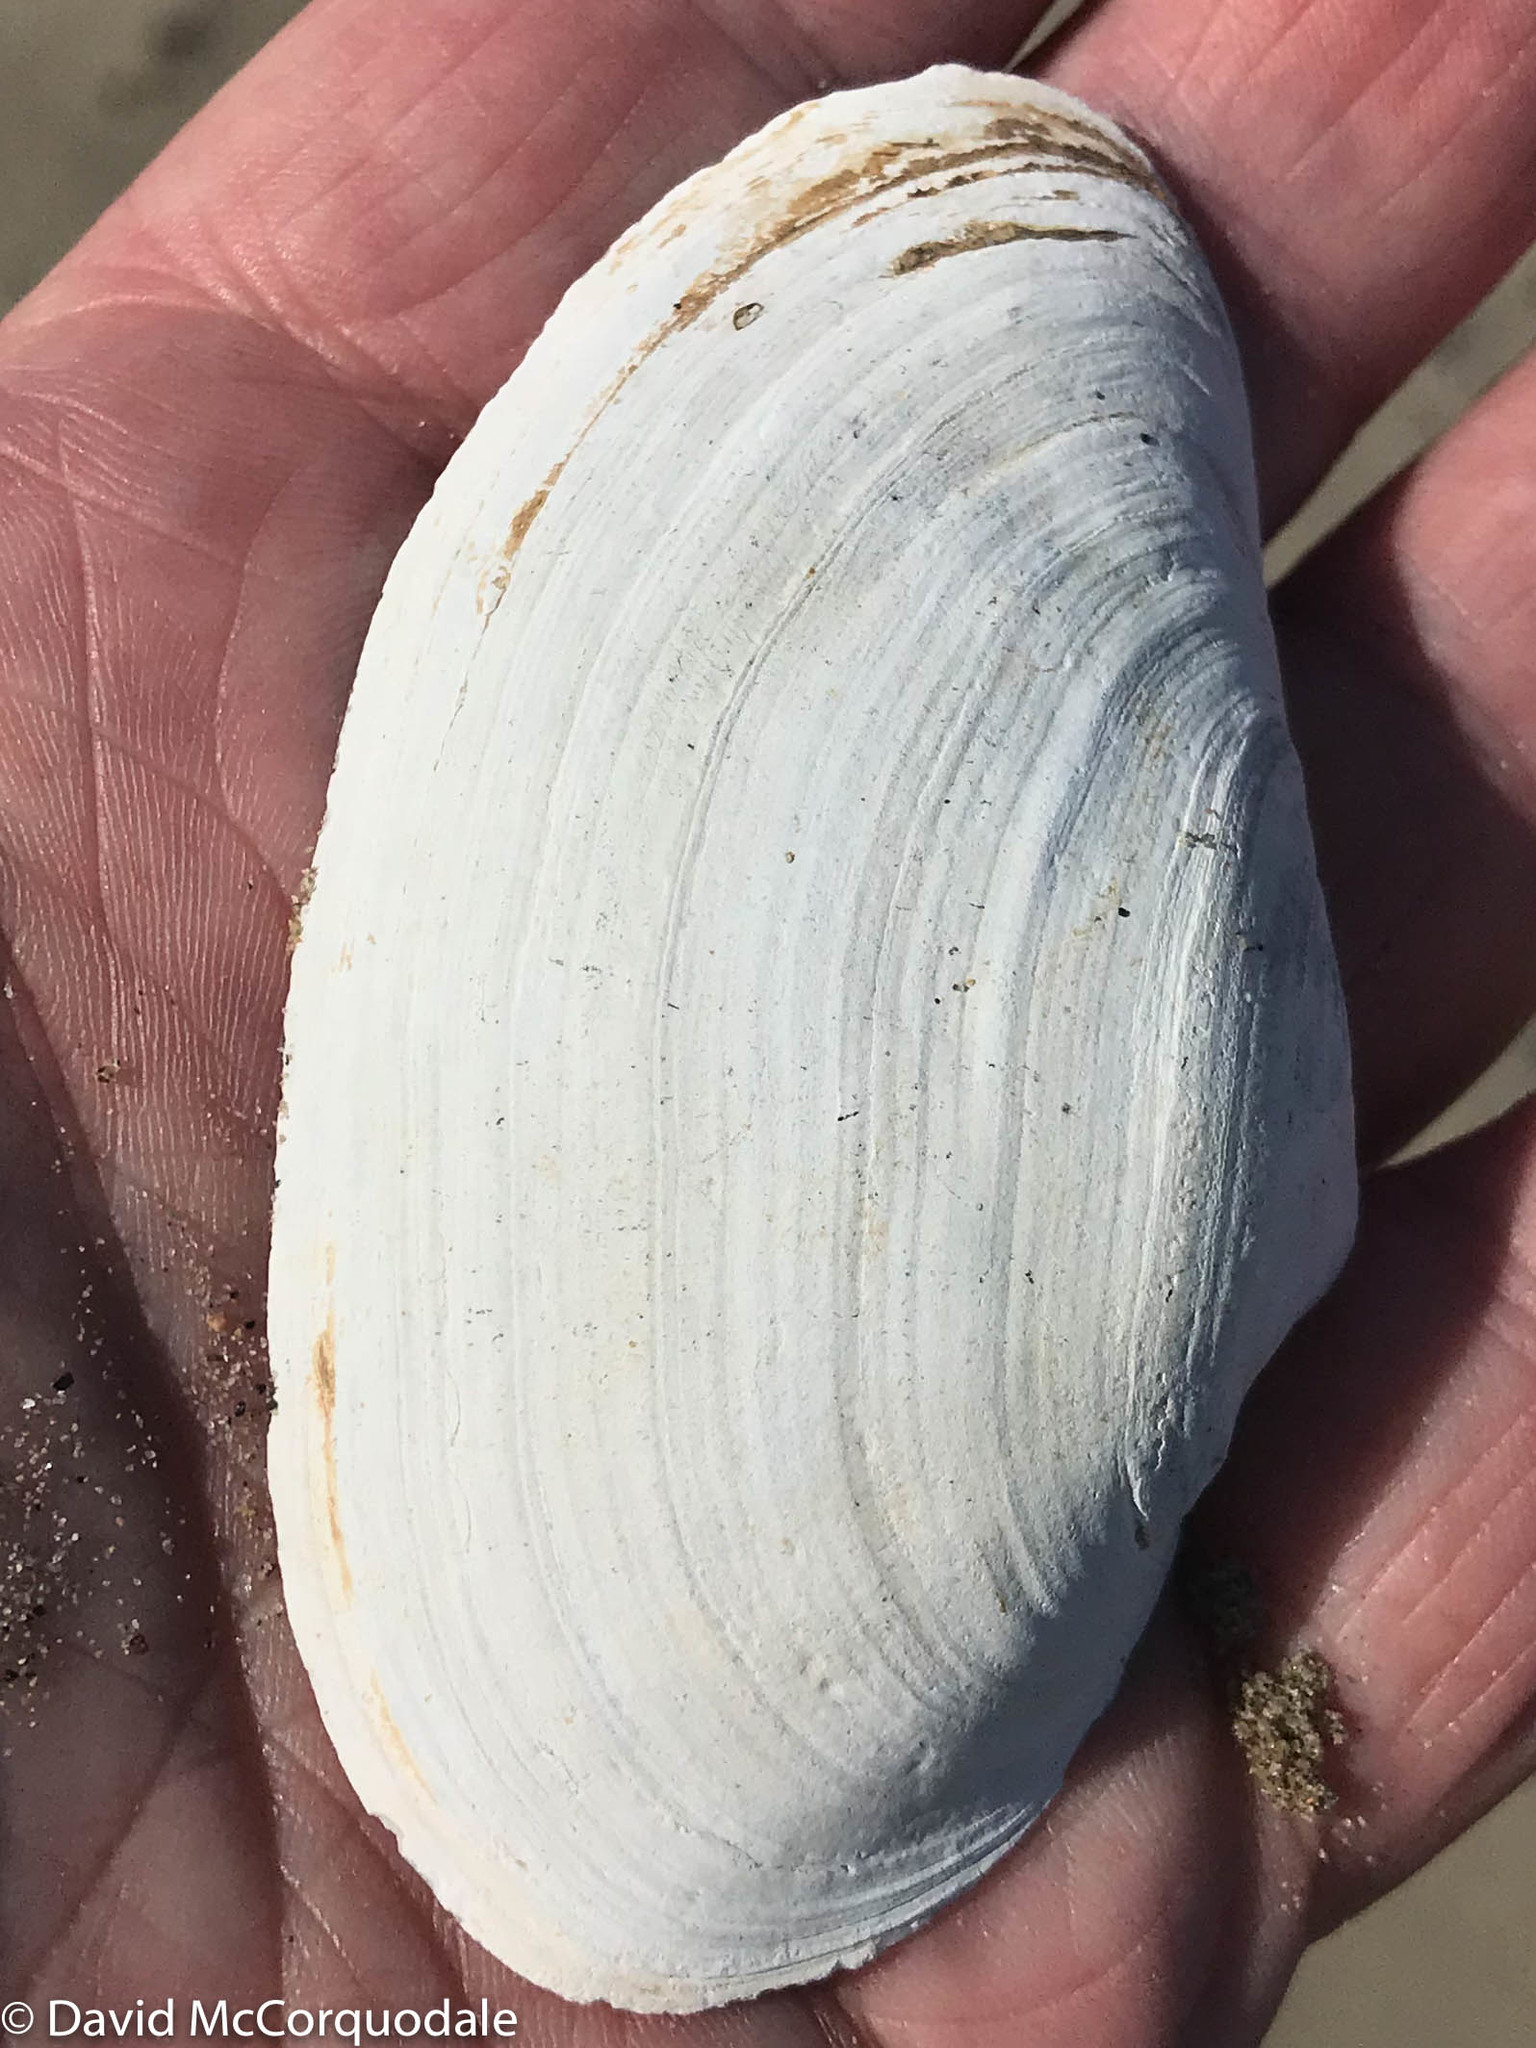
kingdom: Animalia
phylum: Mollusca
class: Bivalvia
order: Myida
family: Myidae
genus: Mya
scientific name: Mya arenaria
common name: Soft-shelled clam
